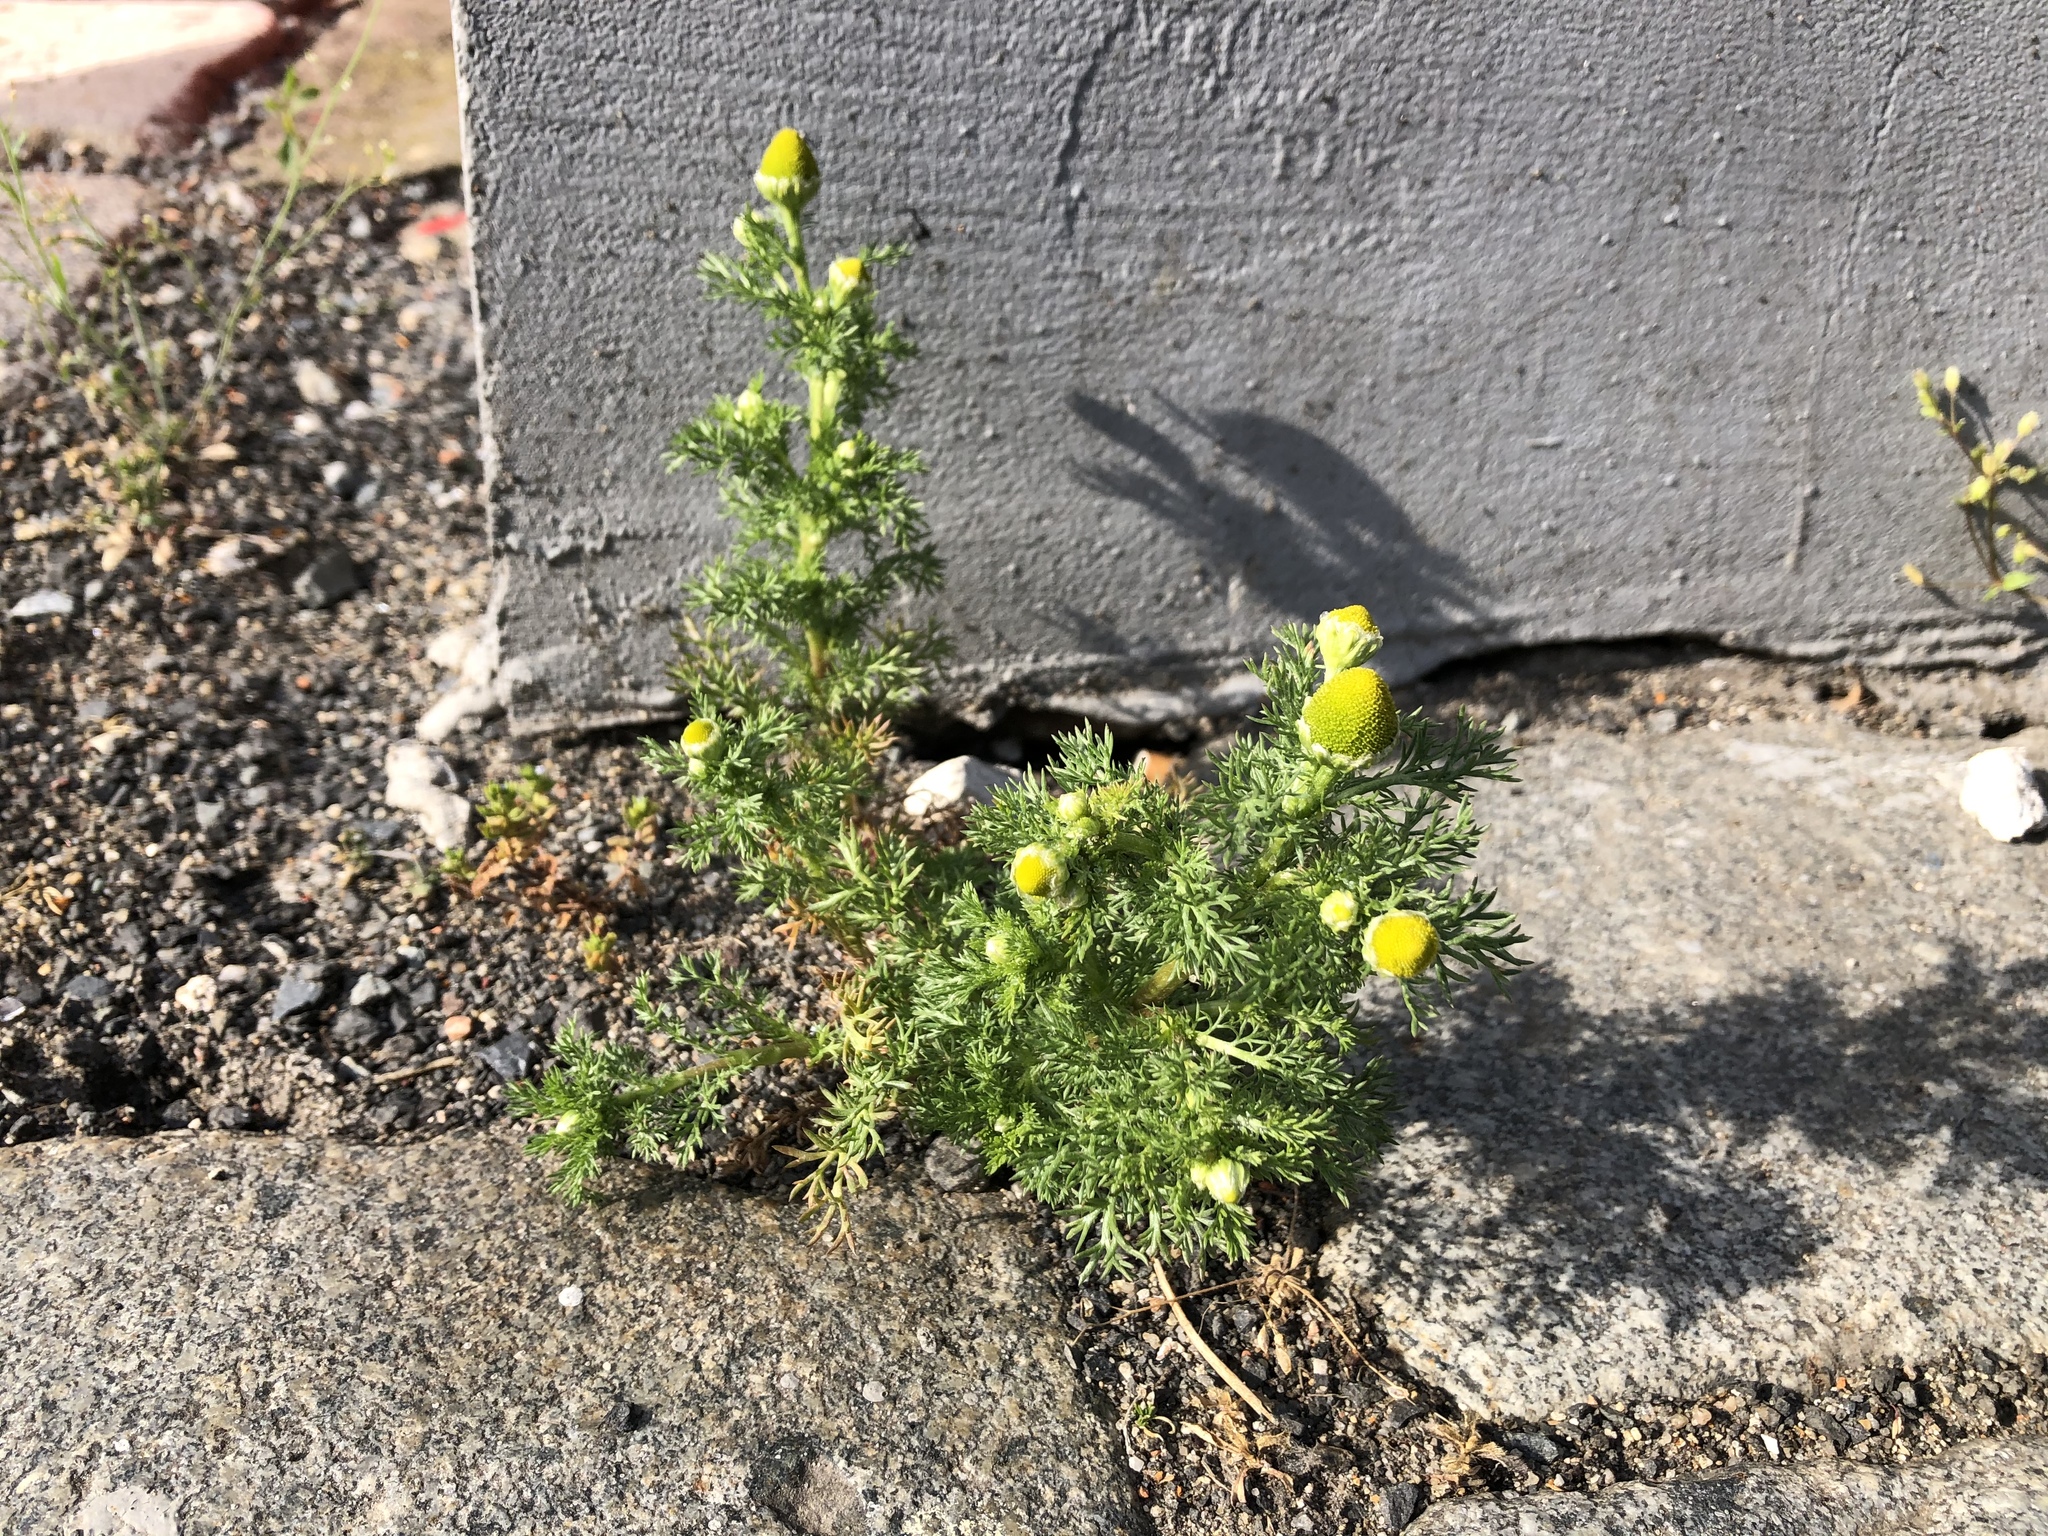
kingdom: Plantae
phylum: Tracheophyta
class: Magnoliopsida
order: Asterales
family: Asteraceae
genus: Matricaria
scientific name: Matricaria discoidea
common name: Disc mayweed
